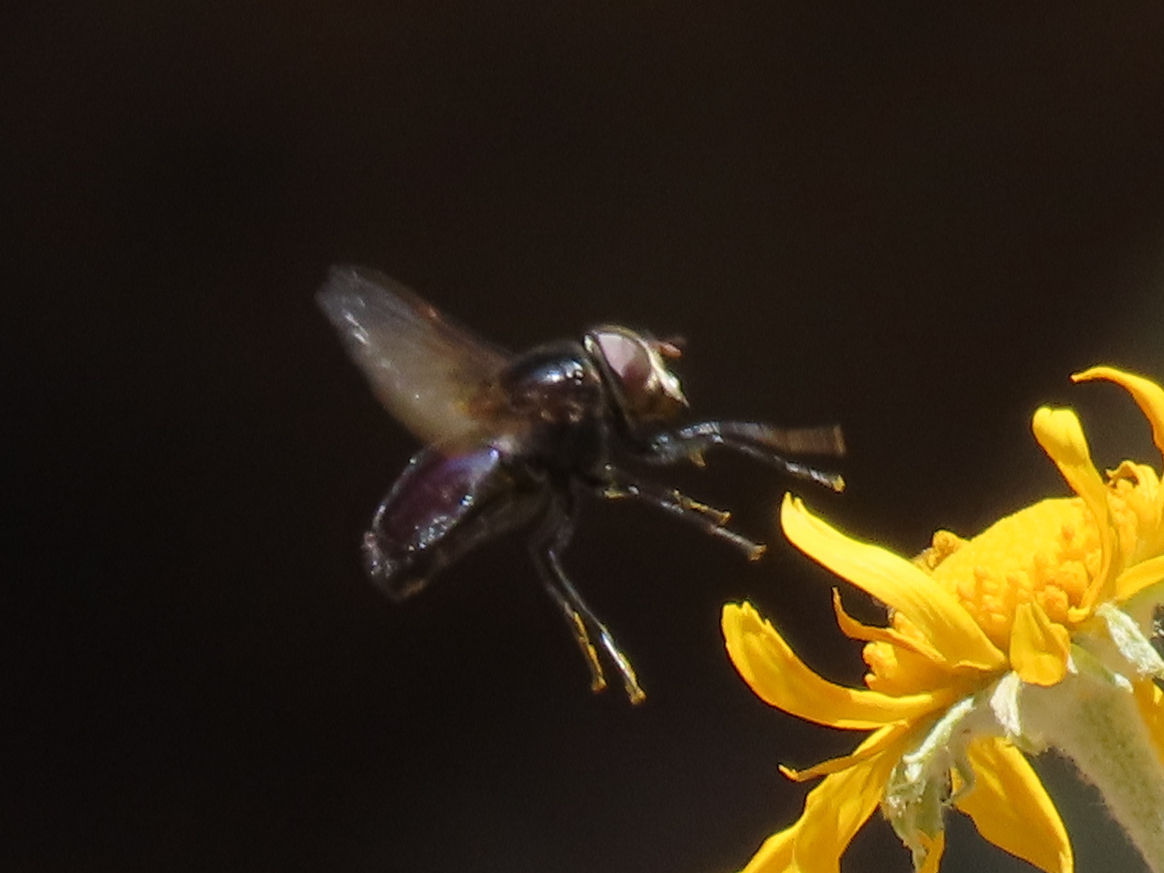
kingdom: Animalia
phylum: Arthropoda
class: Insecta
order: Diptera
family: Syrphidae
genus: Copestylum
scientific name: Copestylum
